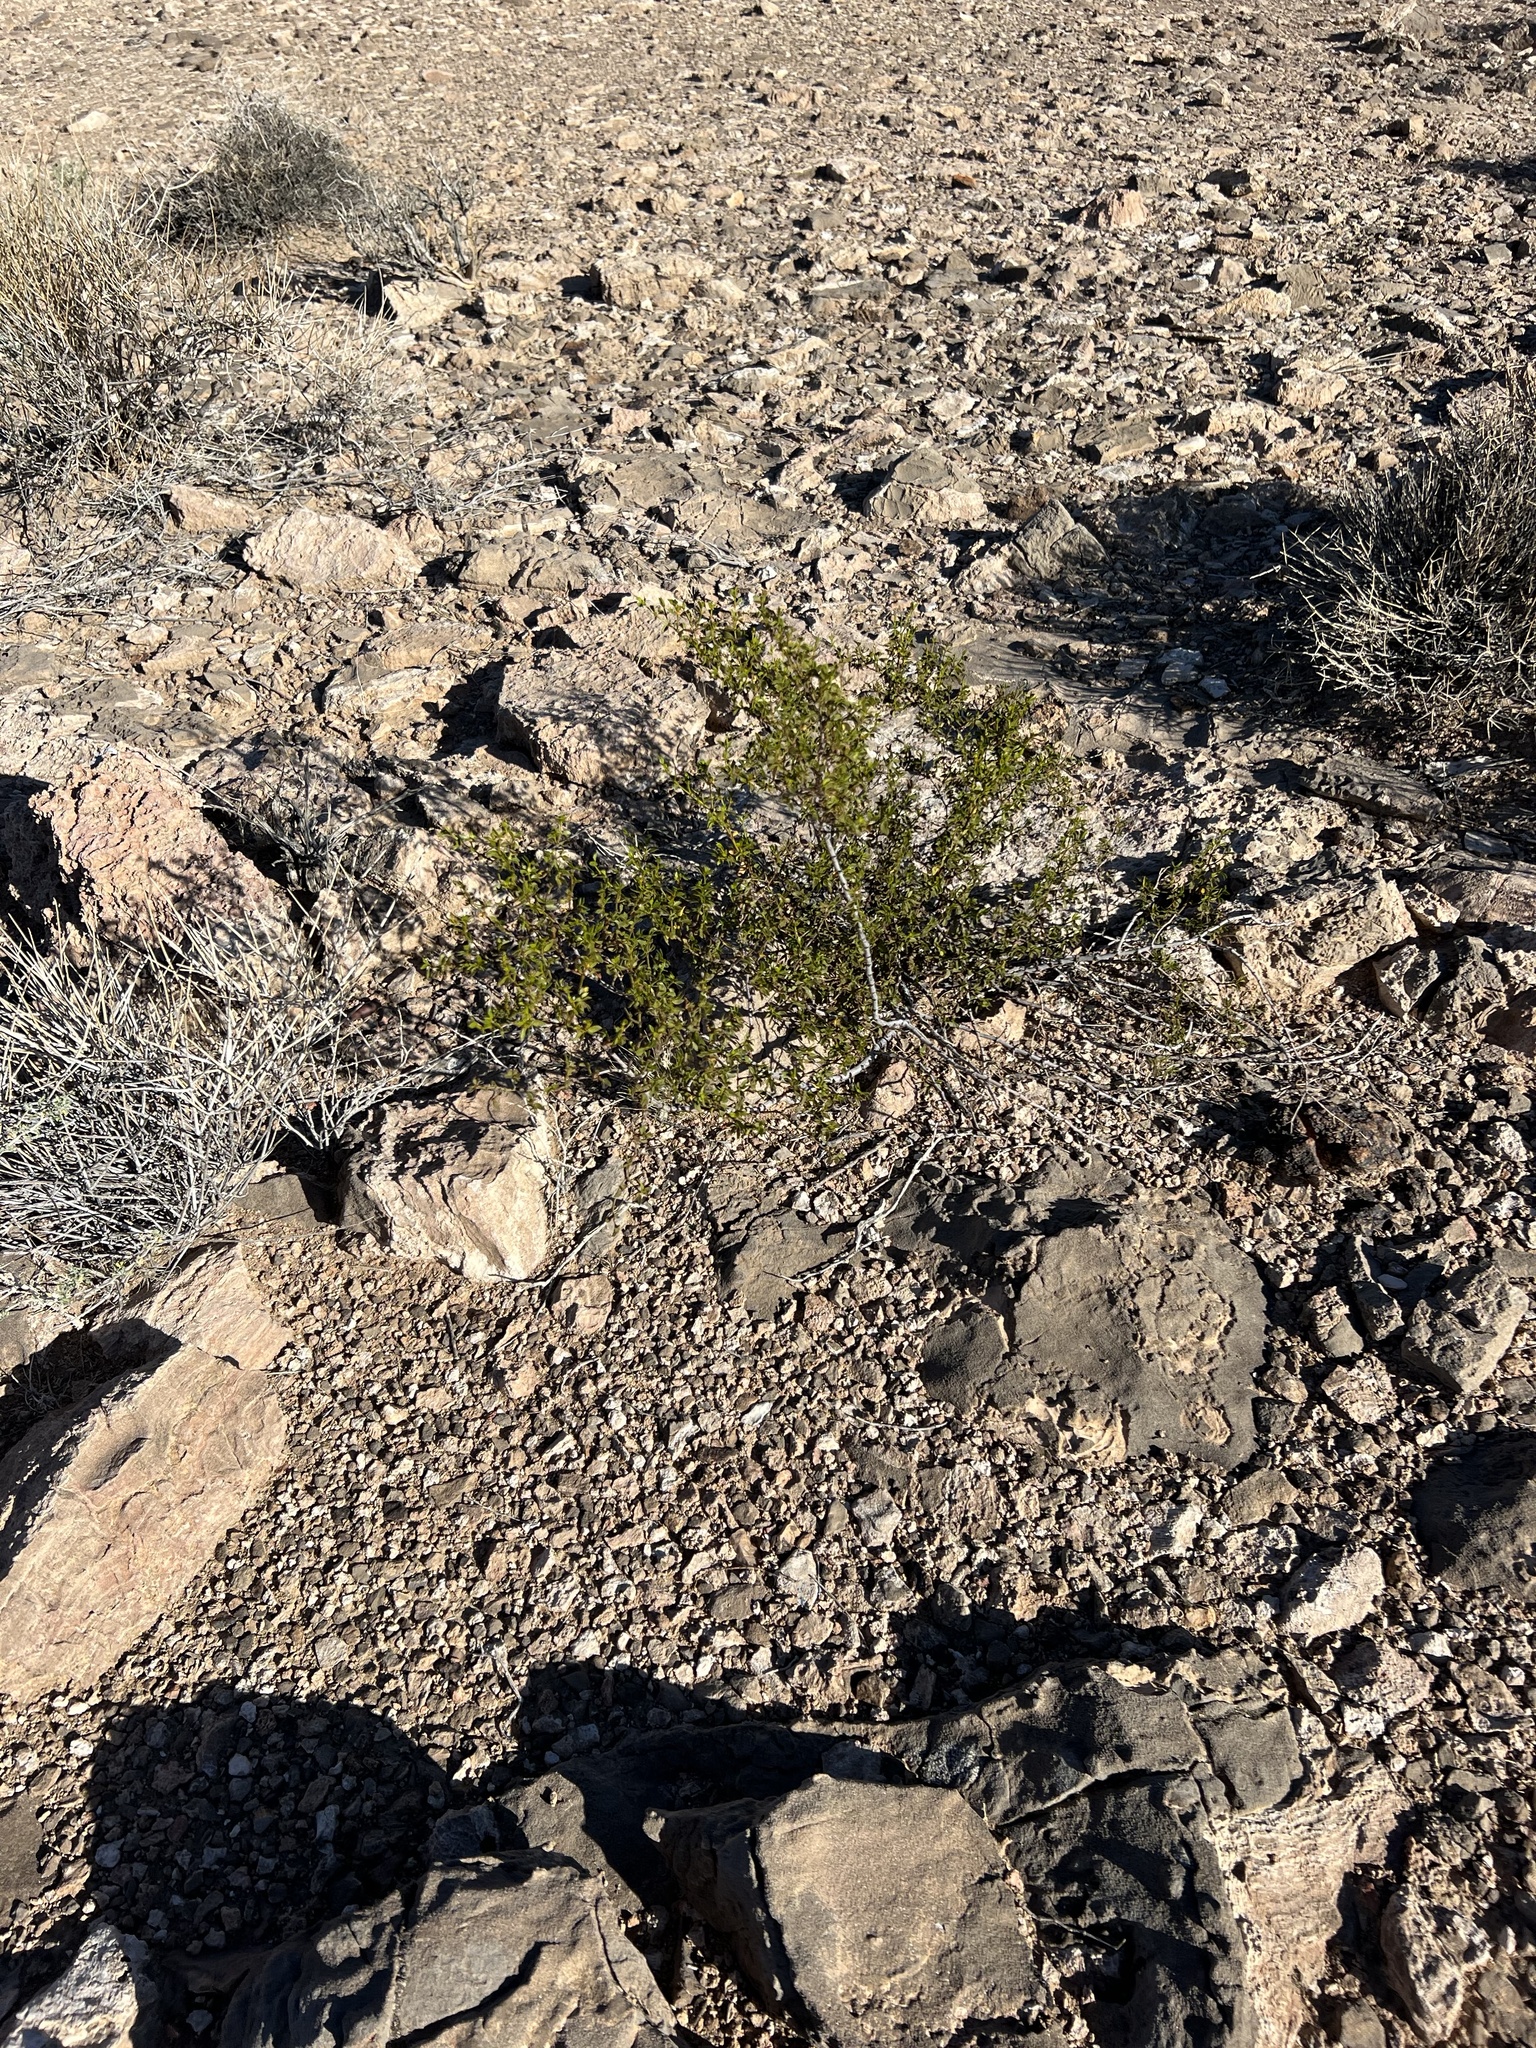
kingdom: Plantae
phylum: Tracheophyta
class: Magnoliopsida
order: Zygophyllales
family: Zygophyllaceae
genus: Larrea
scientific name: Larrea tridentata
